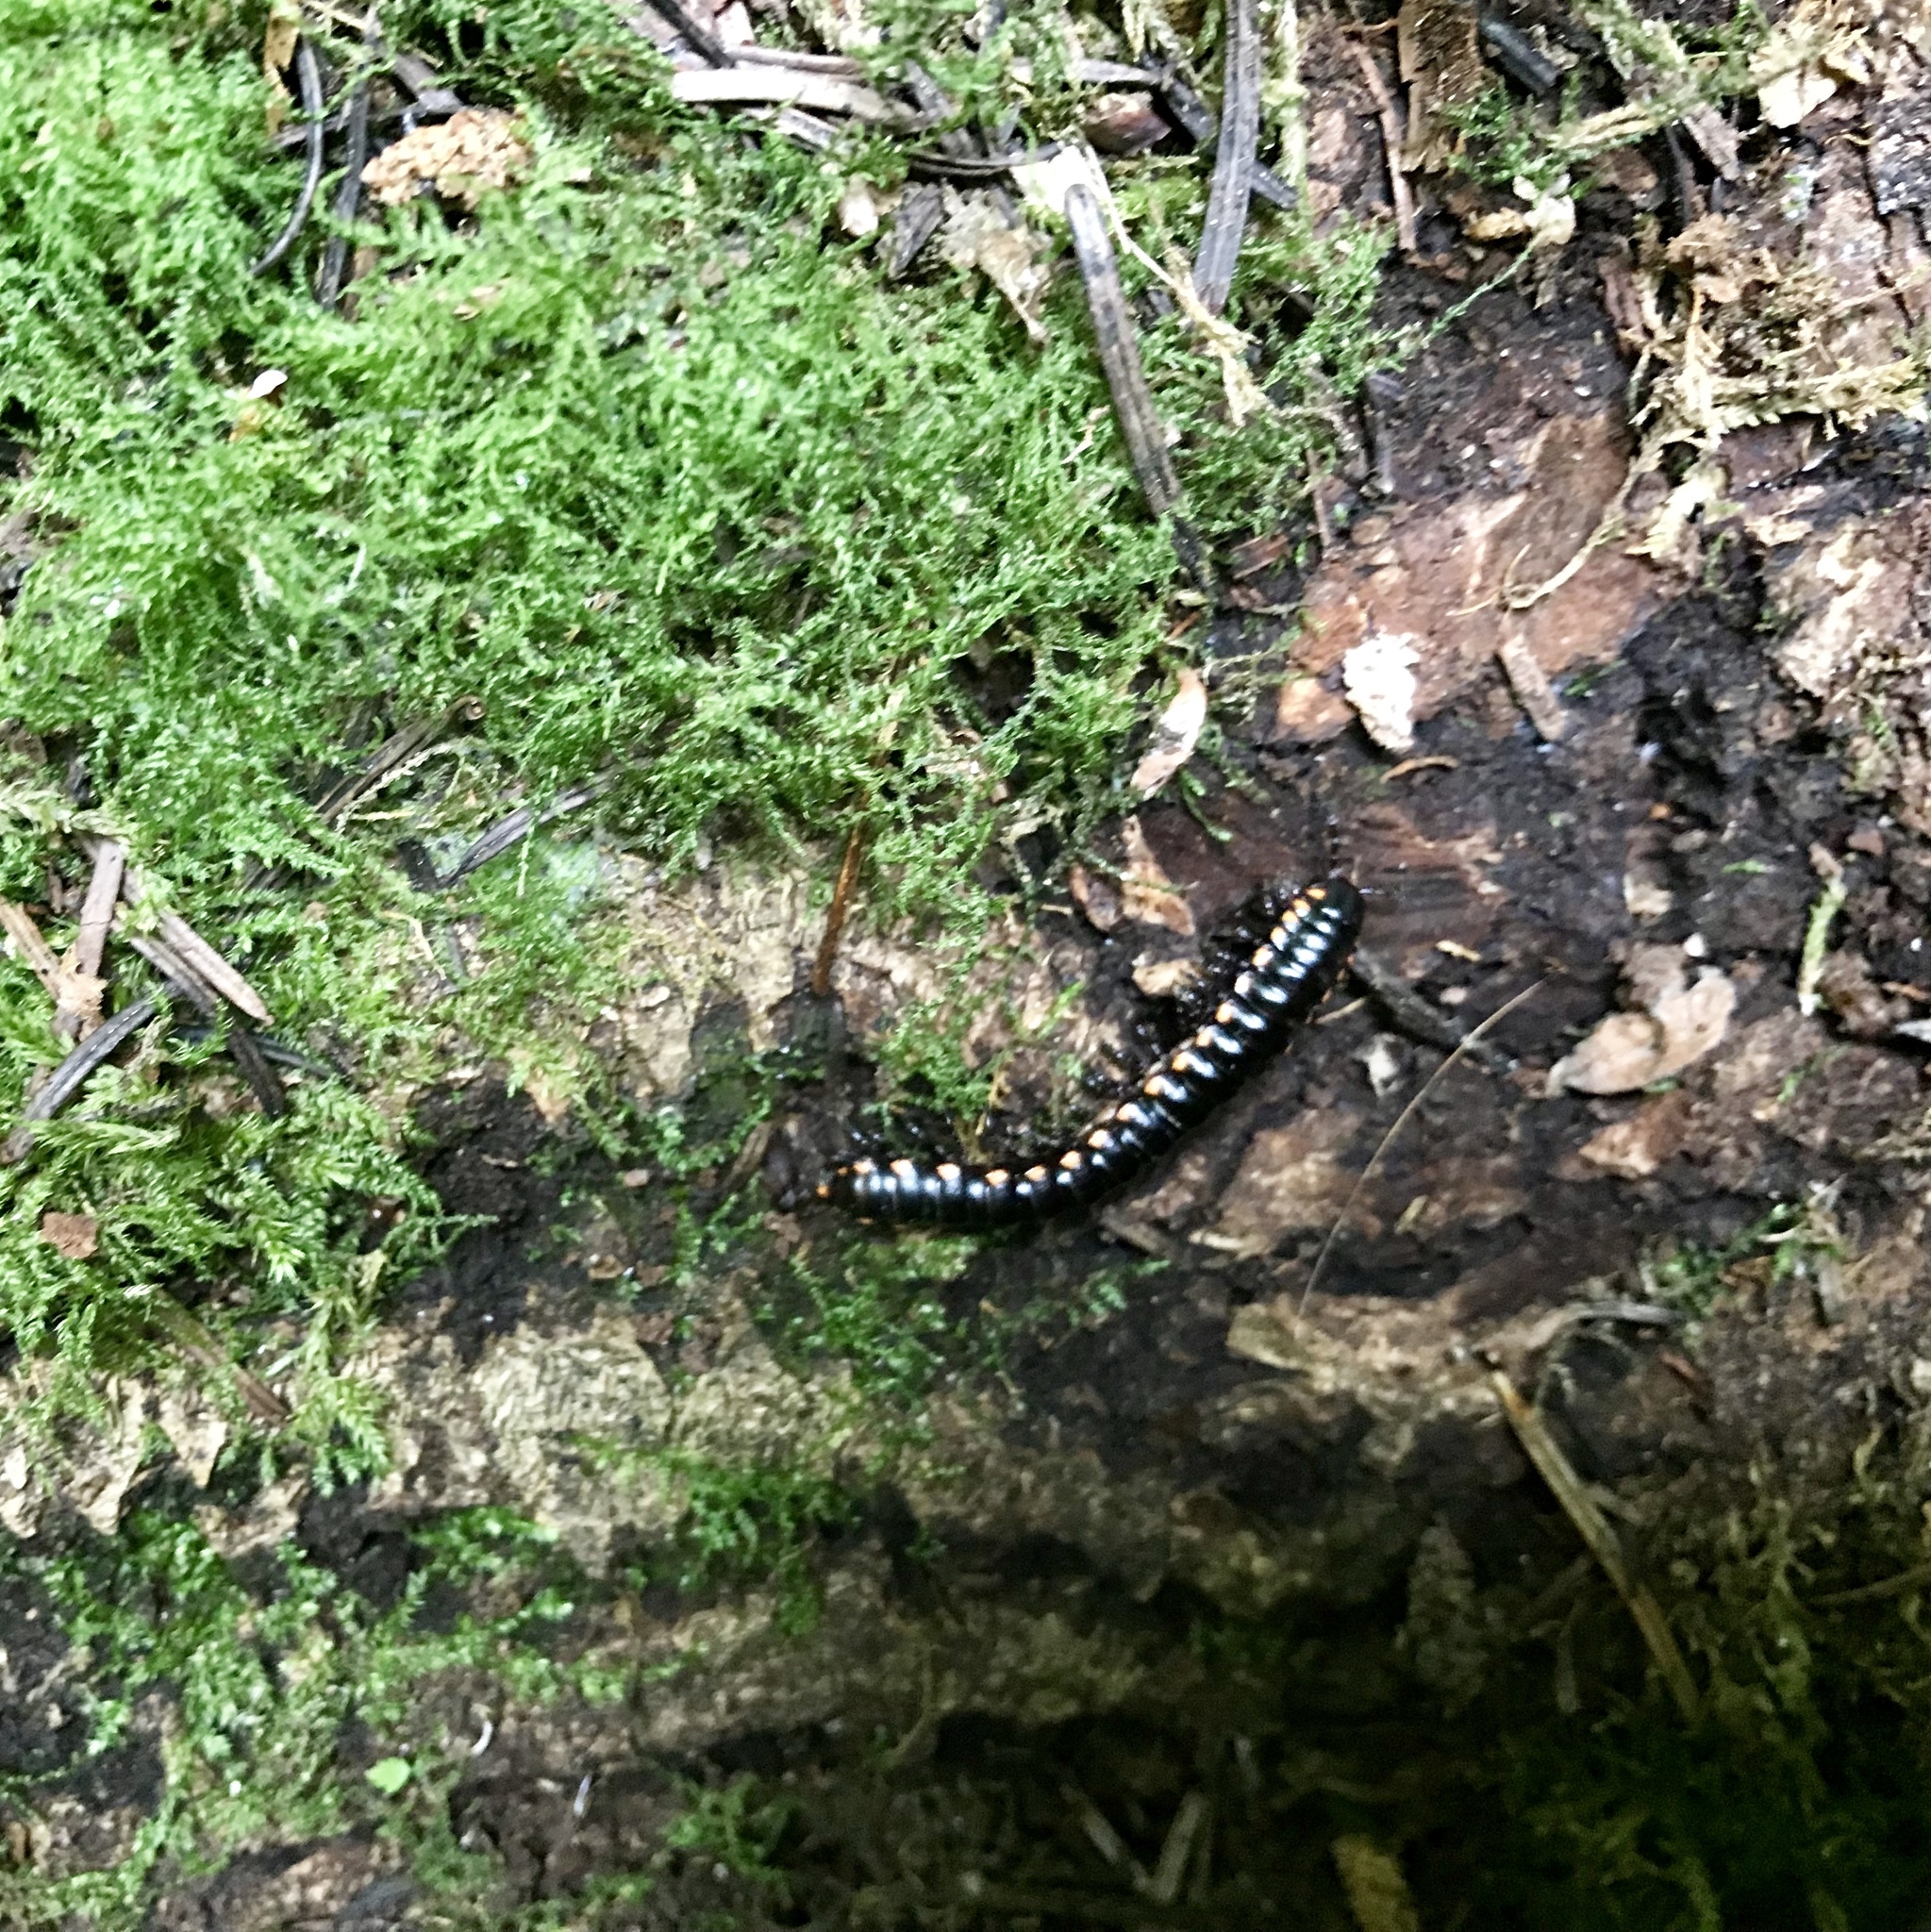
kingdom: Animalia
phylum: Arthropoda
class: Diplopoda
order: Polydesmida
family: Xystodesmidae
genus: Harpaphe
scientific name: Harpaphe haydeniana
